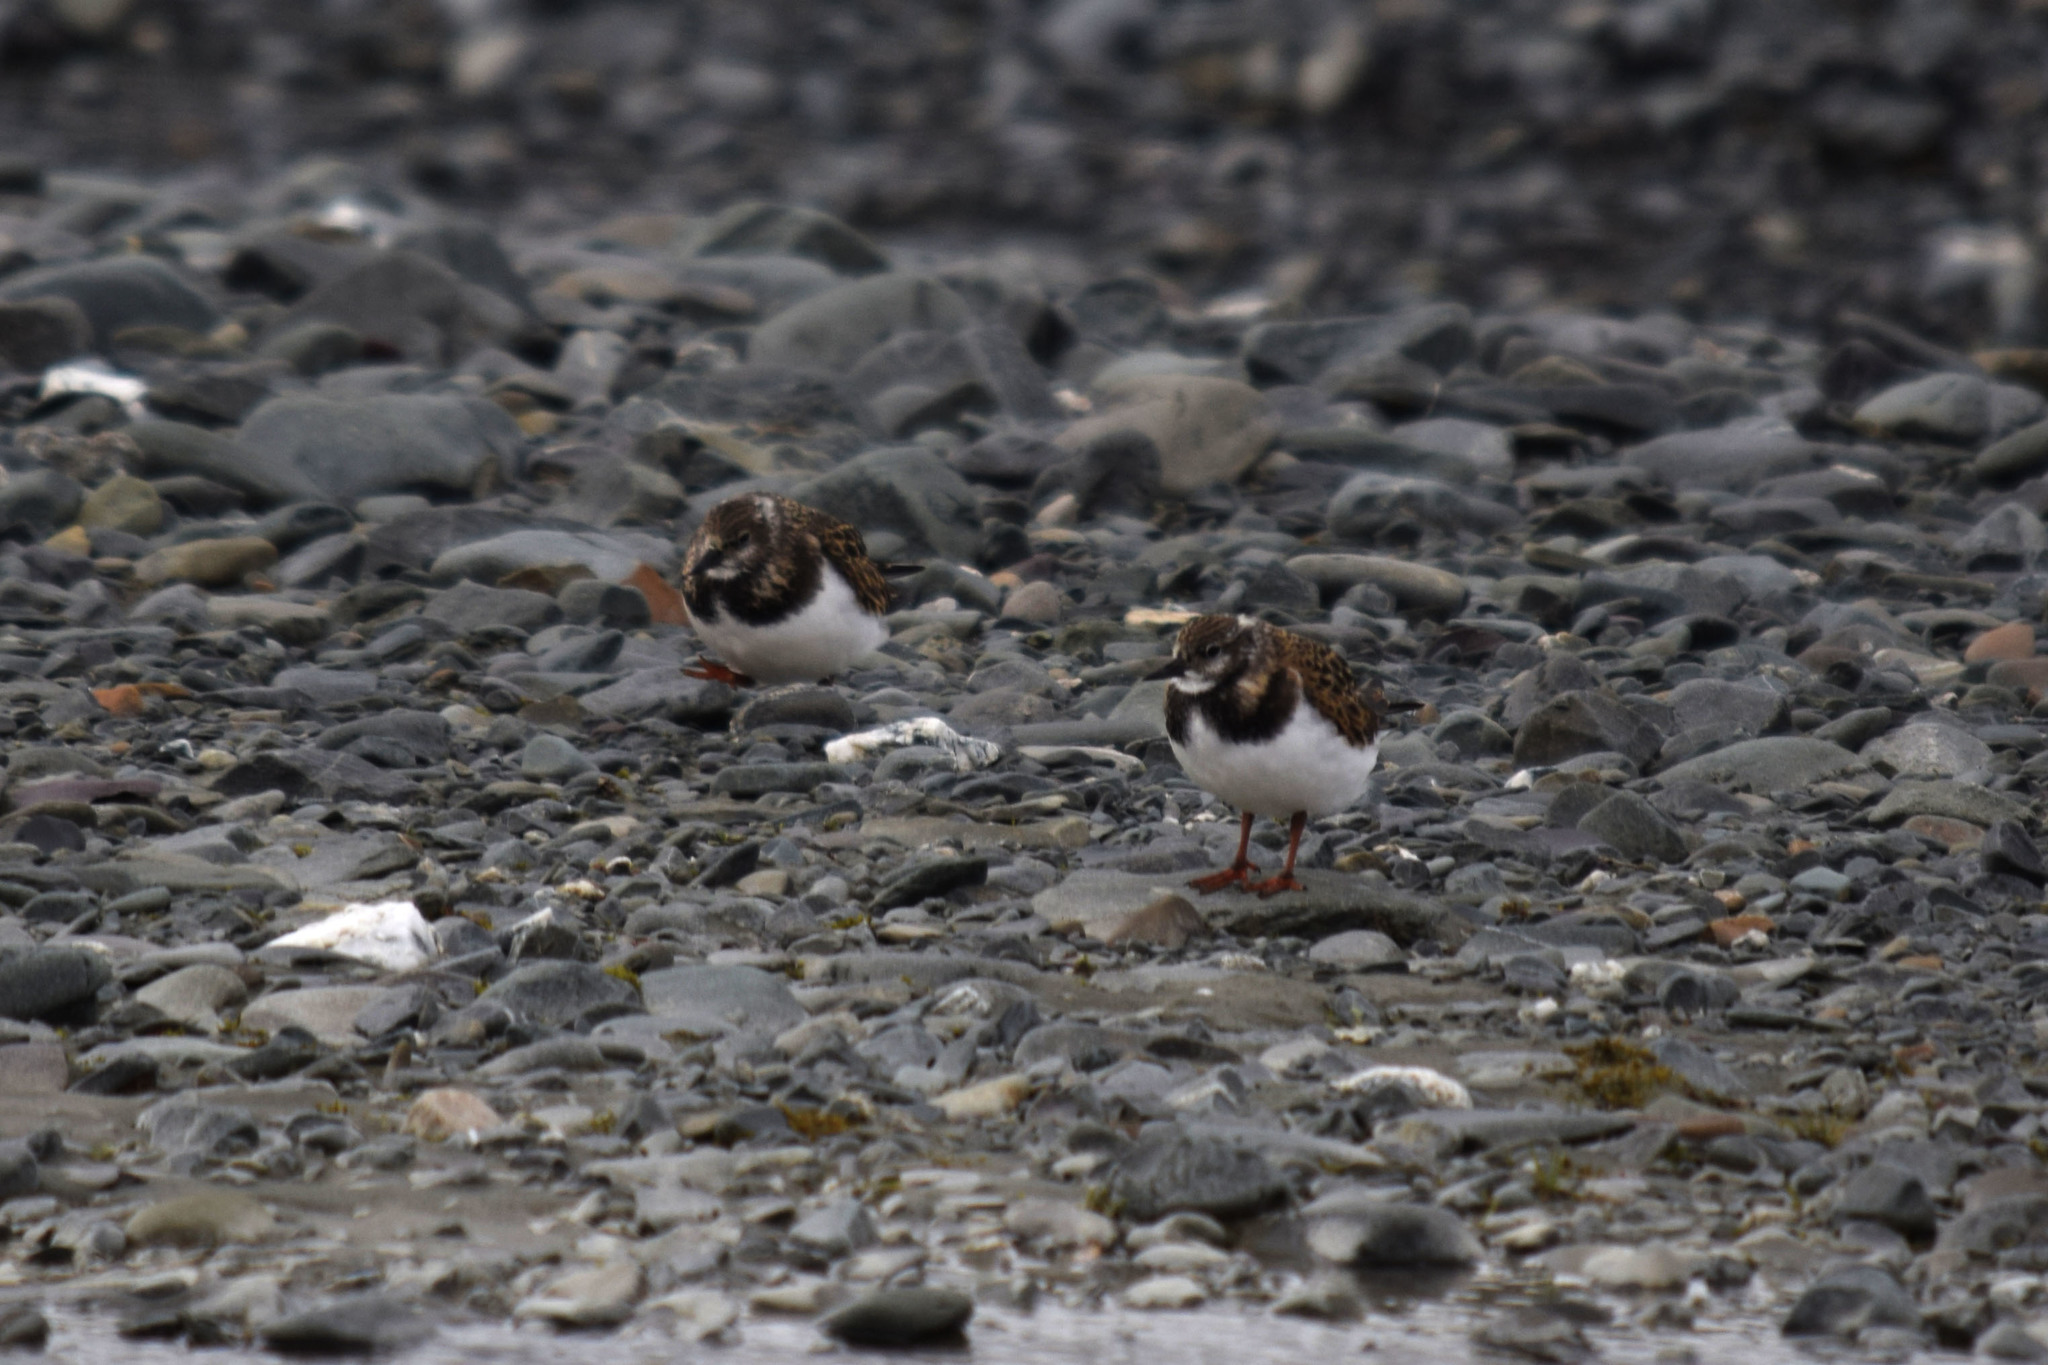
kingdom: Animalia
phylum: Chordata
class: Aves
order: Charadriiformes
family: Scolopacidae
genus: Arenaria
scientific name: Arenaria interpres
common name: Ruddy turnstone
